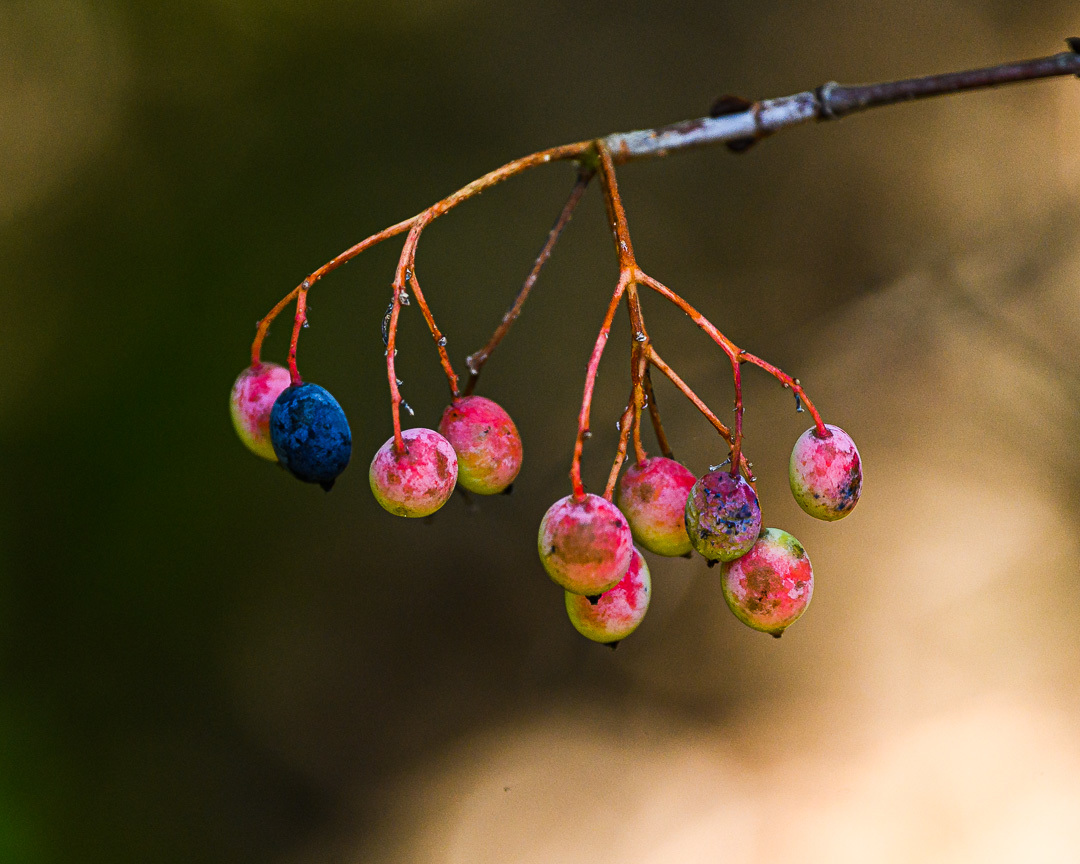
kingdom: Plantae
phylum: Tracheophyta
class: Magnoliopsida
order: Dipsacales
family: Viburnaceae
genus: Viburnum
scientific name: Viburnum rufidulum
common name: Blue haw
